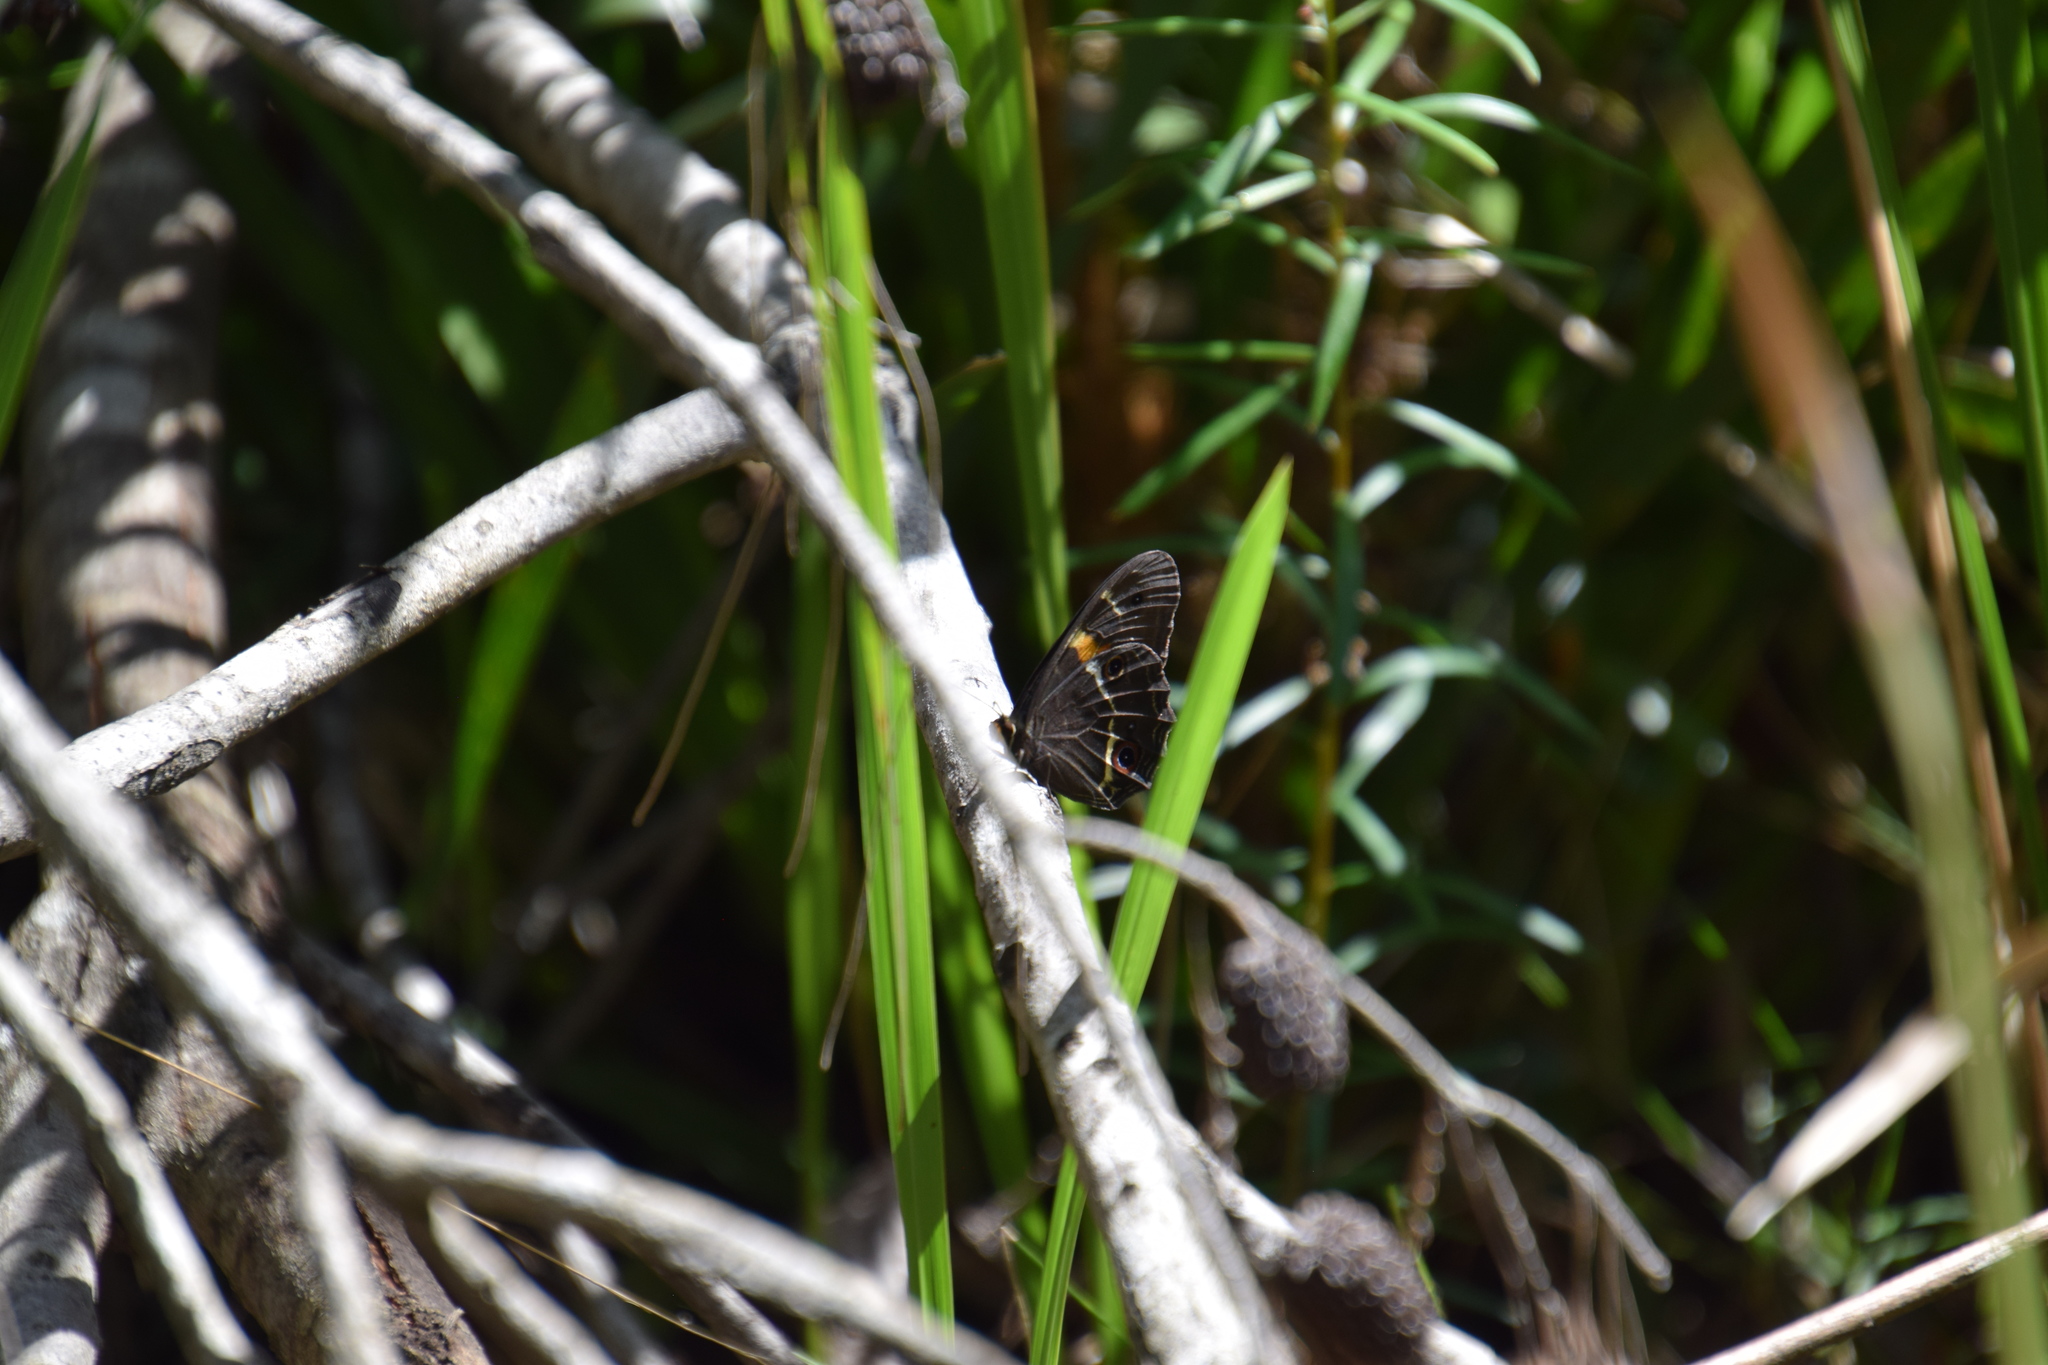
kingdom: Animalia
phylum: Arthropoda
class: Insecta
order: Lepidoptera
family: Nymphalidae
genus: Tisiphone
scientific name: Tisiphone abeona
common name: Swordgrass brown
